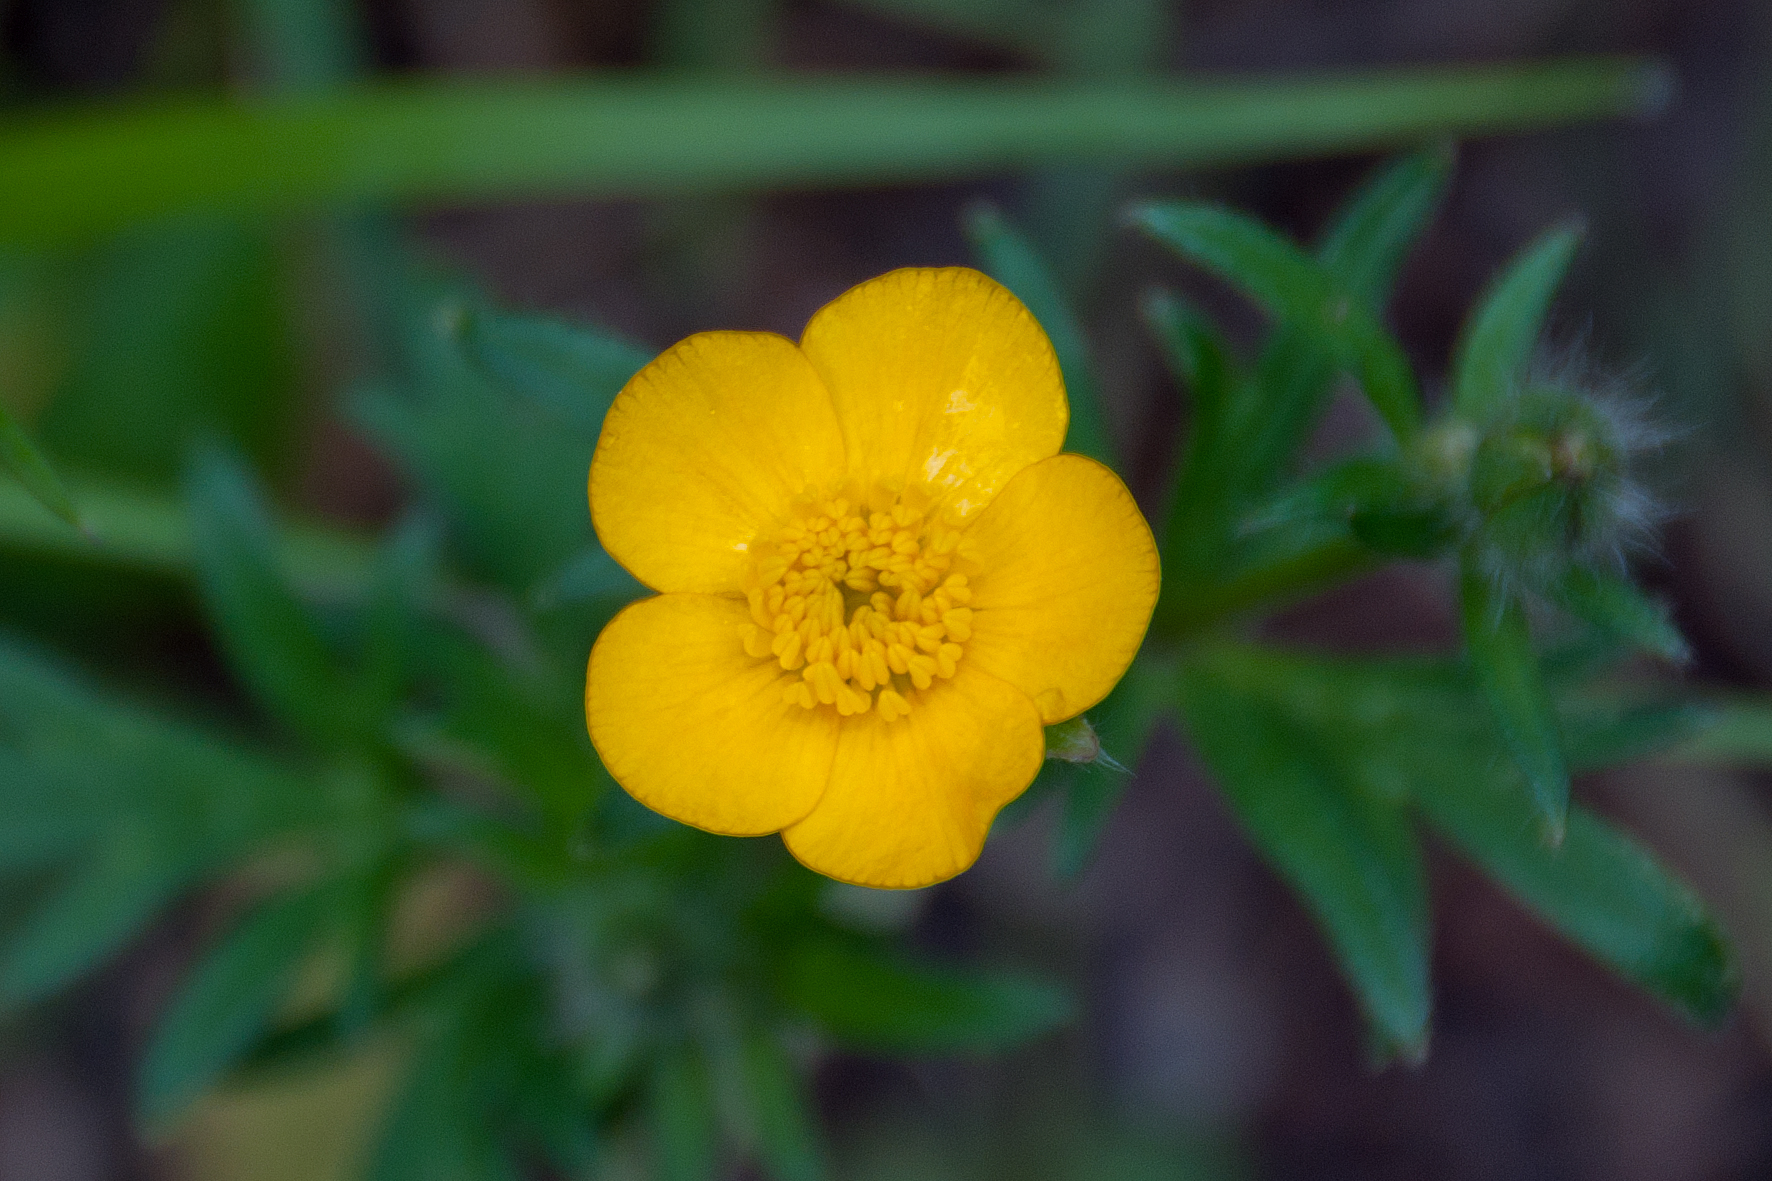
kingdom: Plantae
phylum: Tracheophyta
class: Magnoliopsida
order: Ranunculales
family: Ranunculaceae
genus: Ranunculus
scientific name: Ranunculus acris
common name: Meadow buttercup
